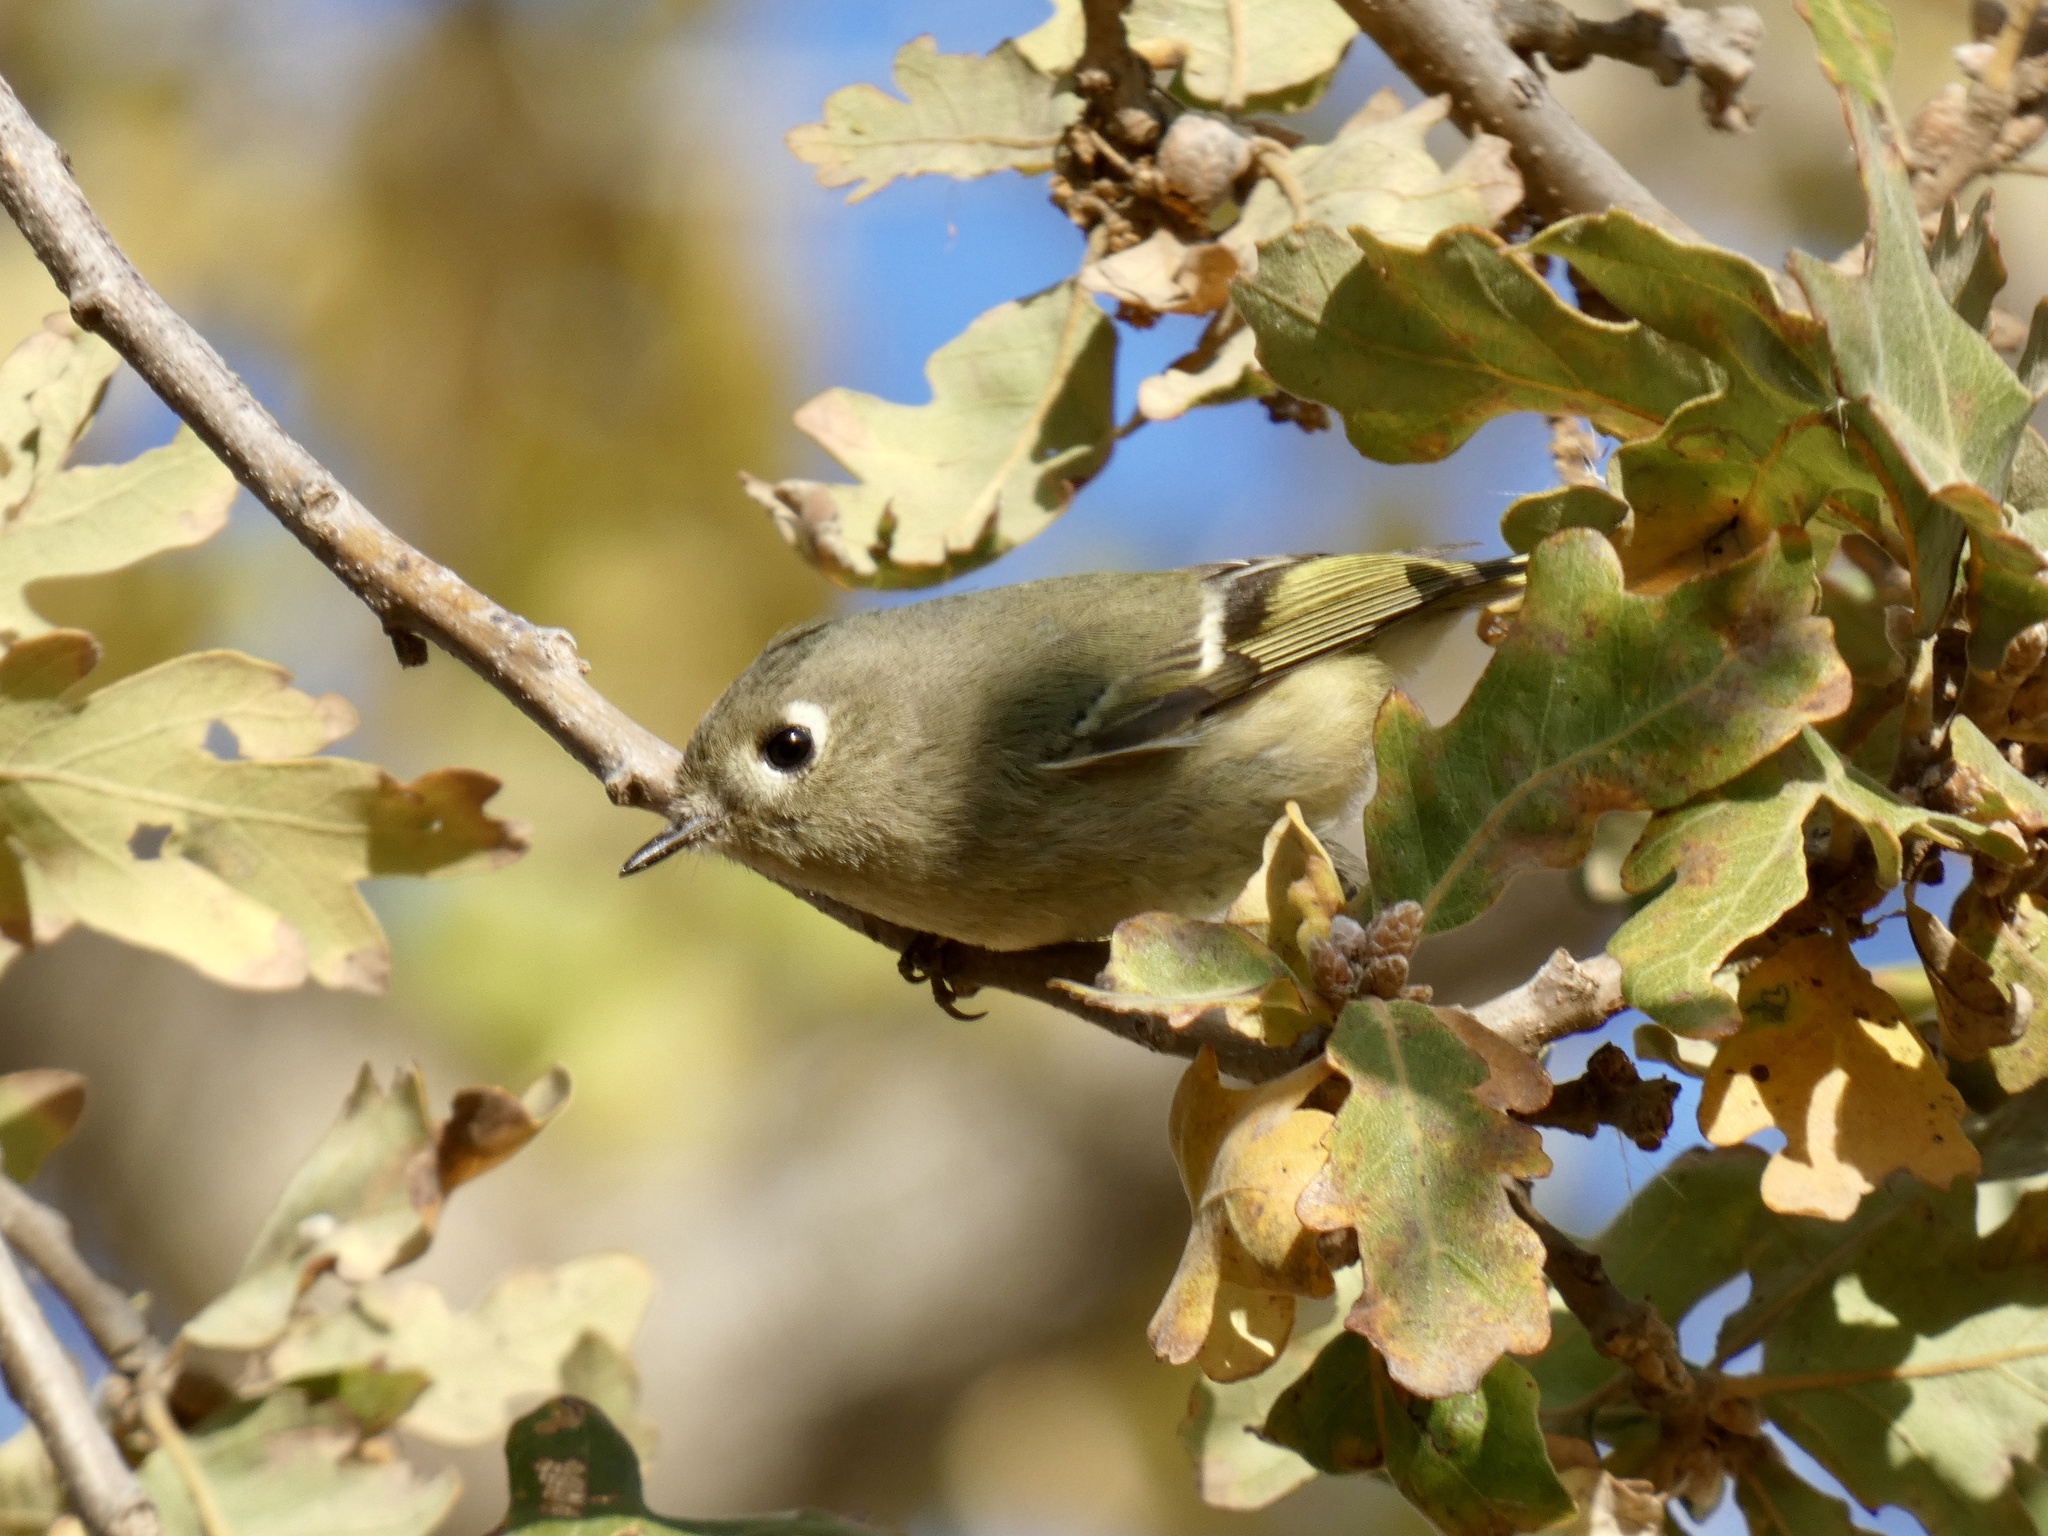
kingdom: Animalia
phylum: Chordata
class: Aves
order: Passeriformes
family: Regulidae
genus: Regulus
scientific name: Regulus calendula
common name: Ruby-crowned kinglet
